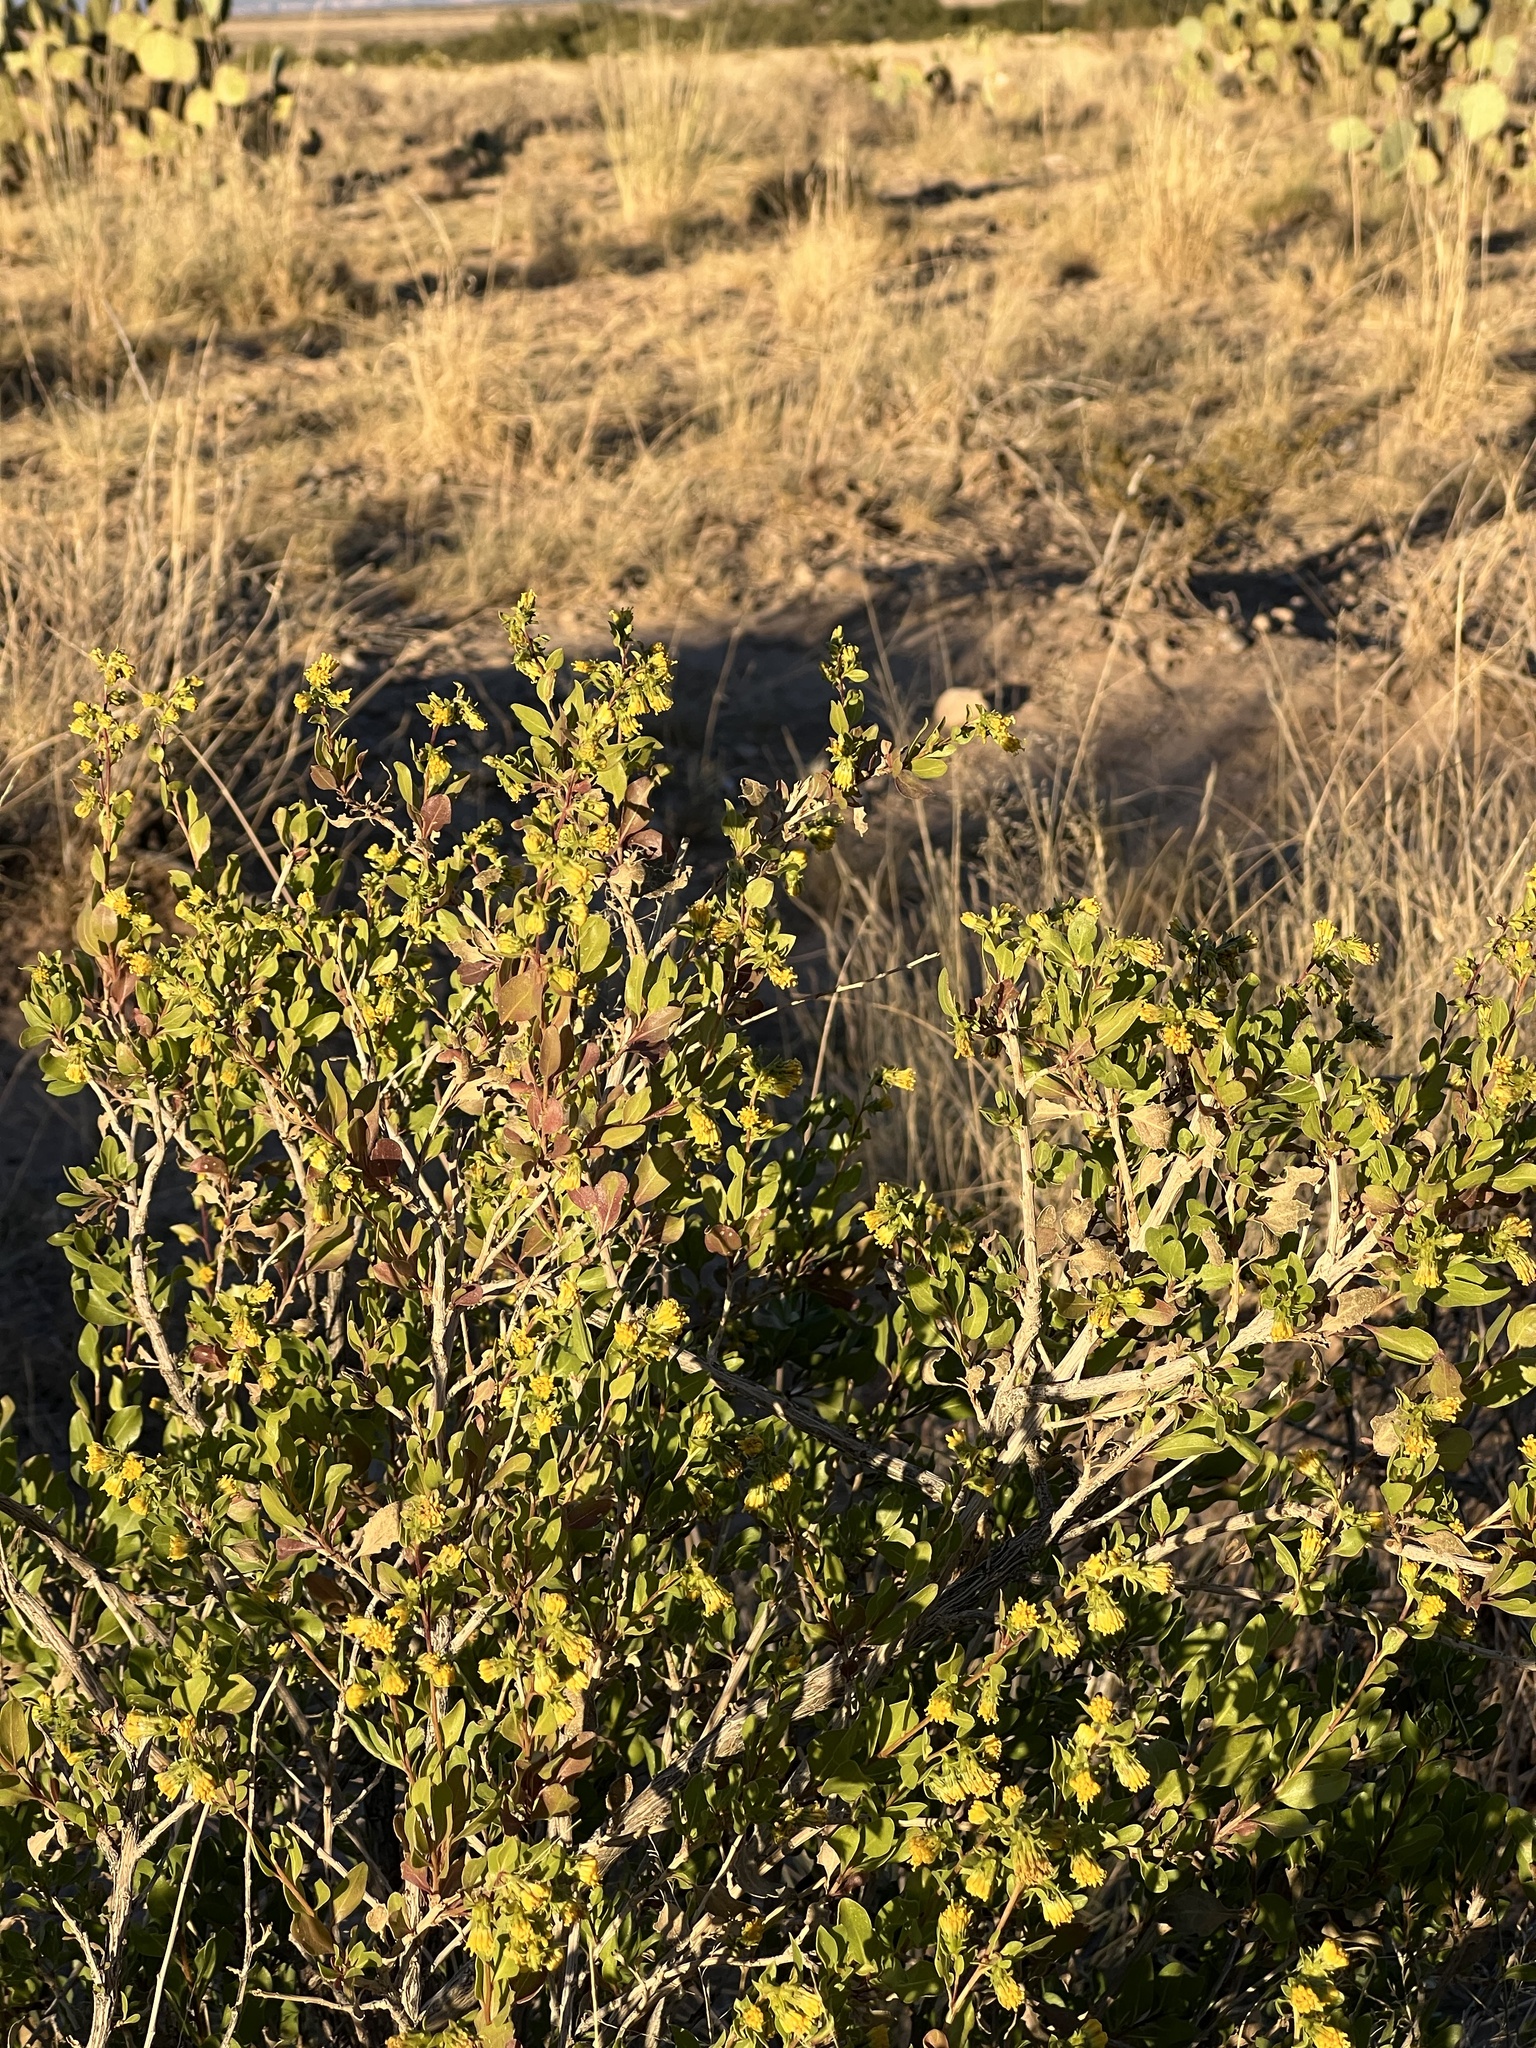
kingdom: Plantae
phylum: Tracheophyta
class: Magnoliopsida
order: Asterales
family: Asteraceae
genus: Flourensia
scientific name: Flourensia cernua
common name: Varnishbush
